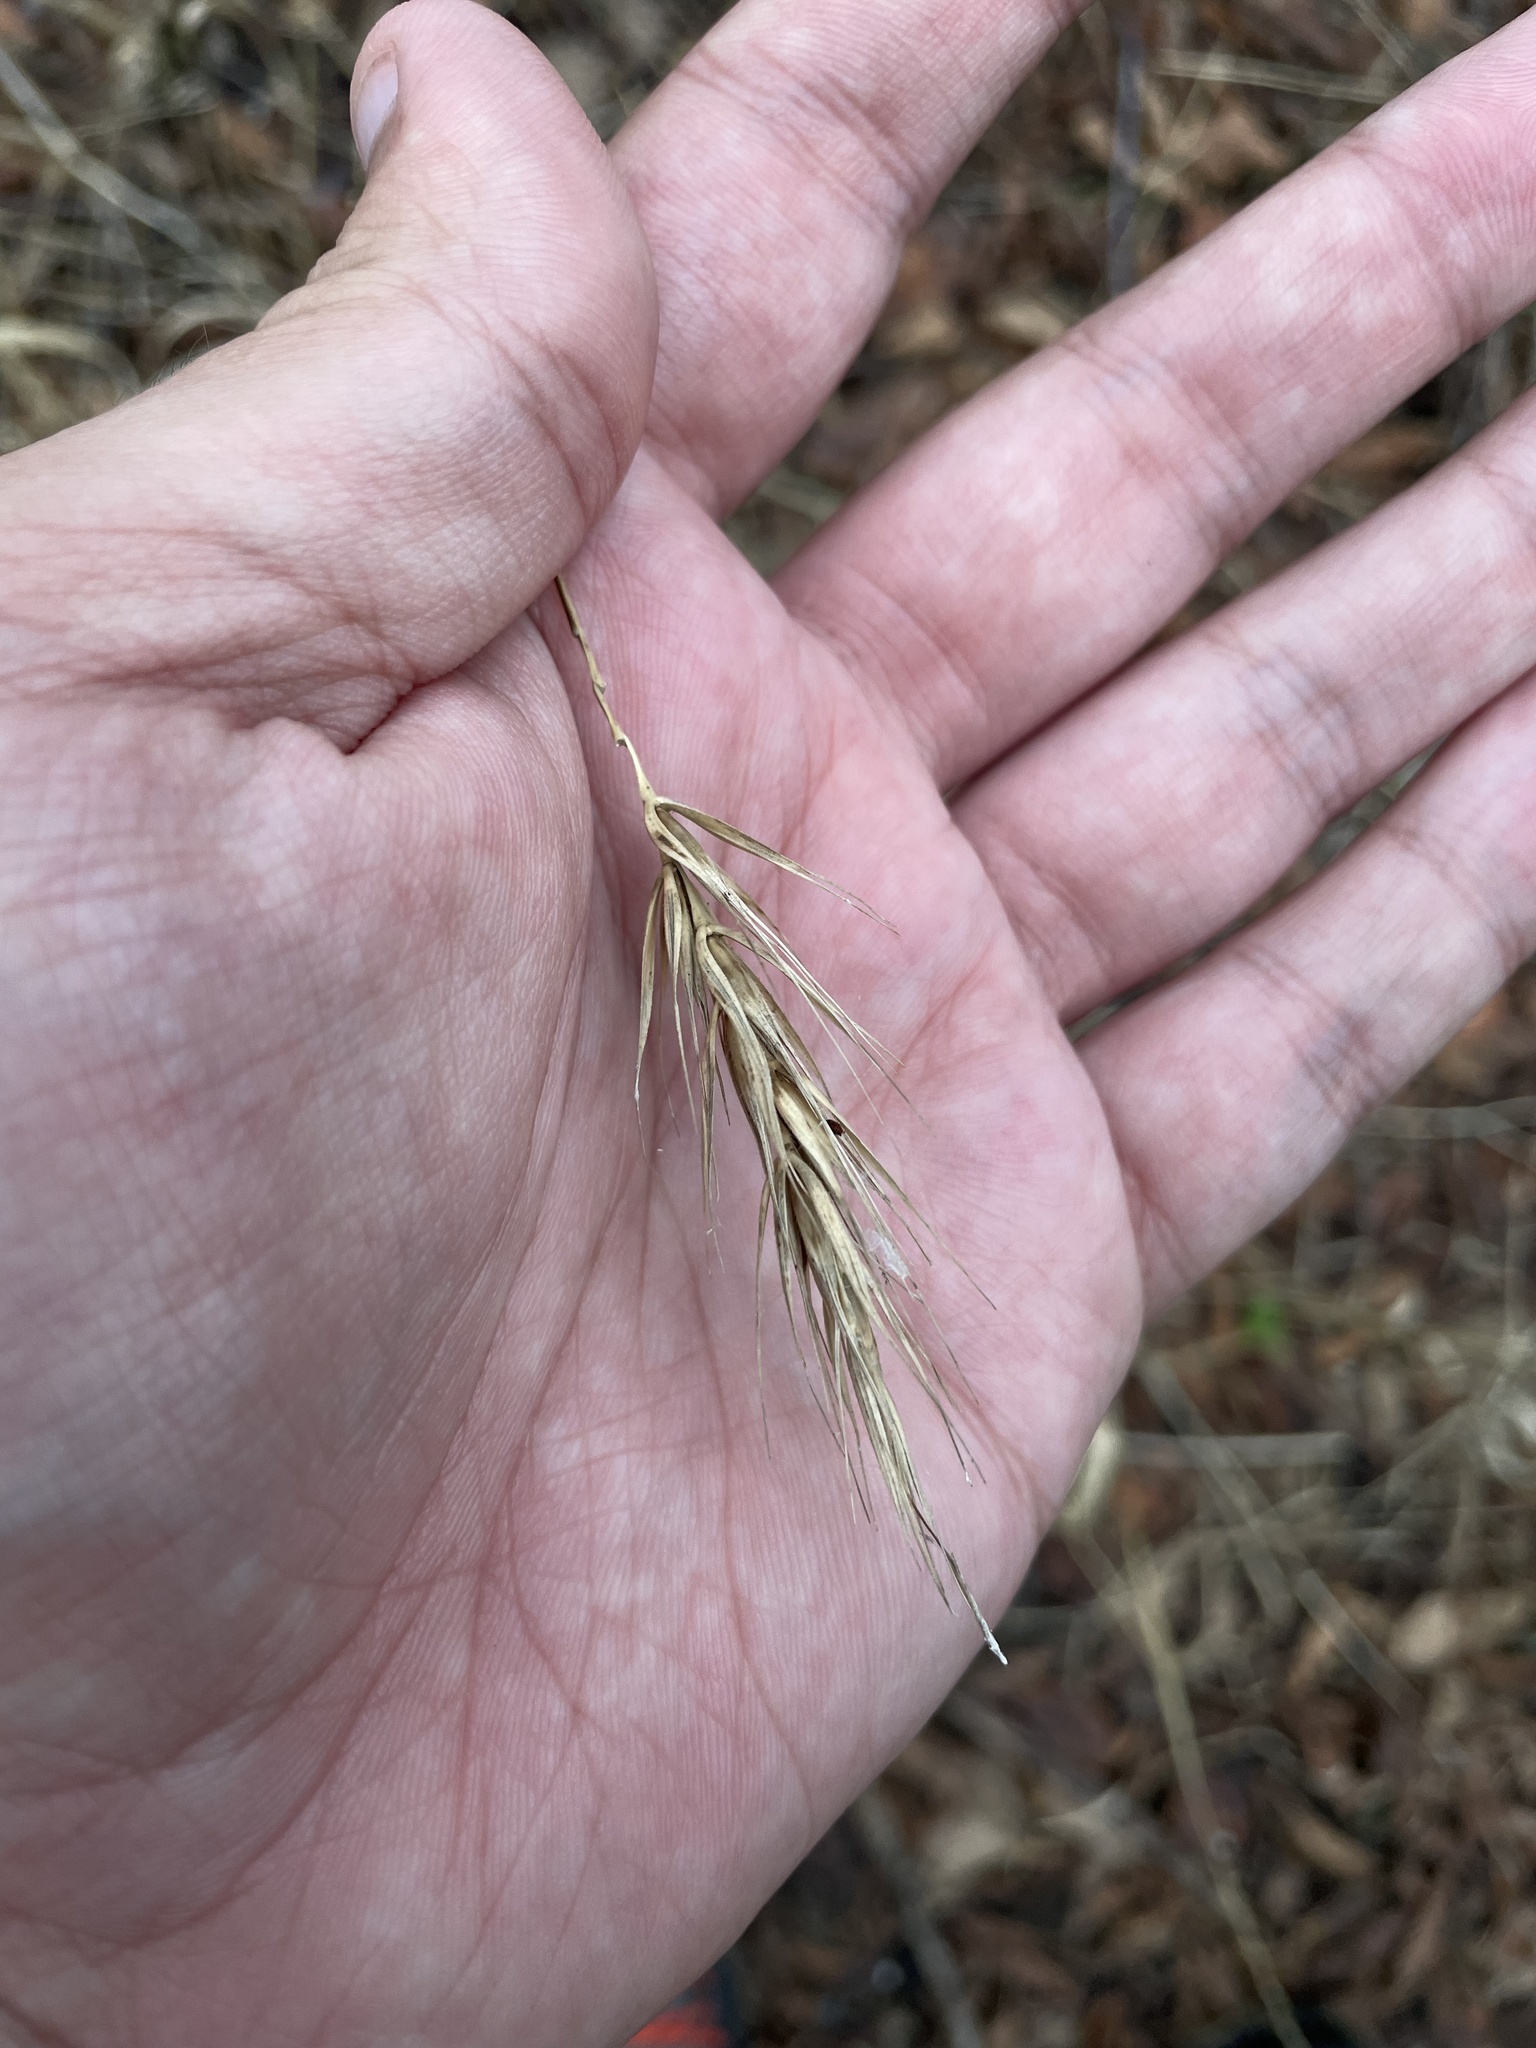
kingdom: Plantae
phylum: Tracheophyta
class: Liliopsida
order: Poales
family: Poaceae
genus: Elymus
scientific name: Elymus virginicus
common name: Common eastern wildrye
